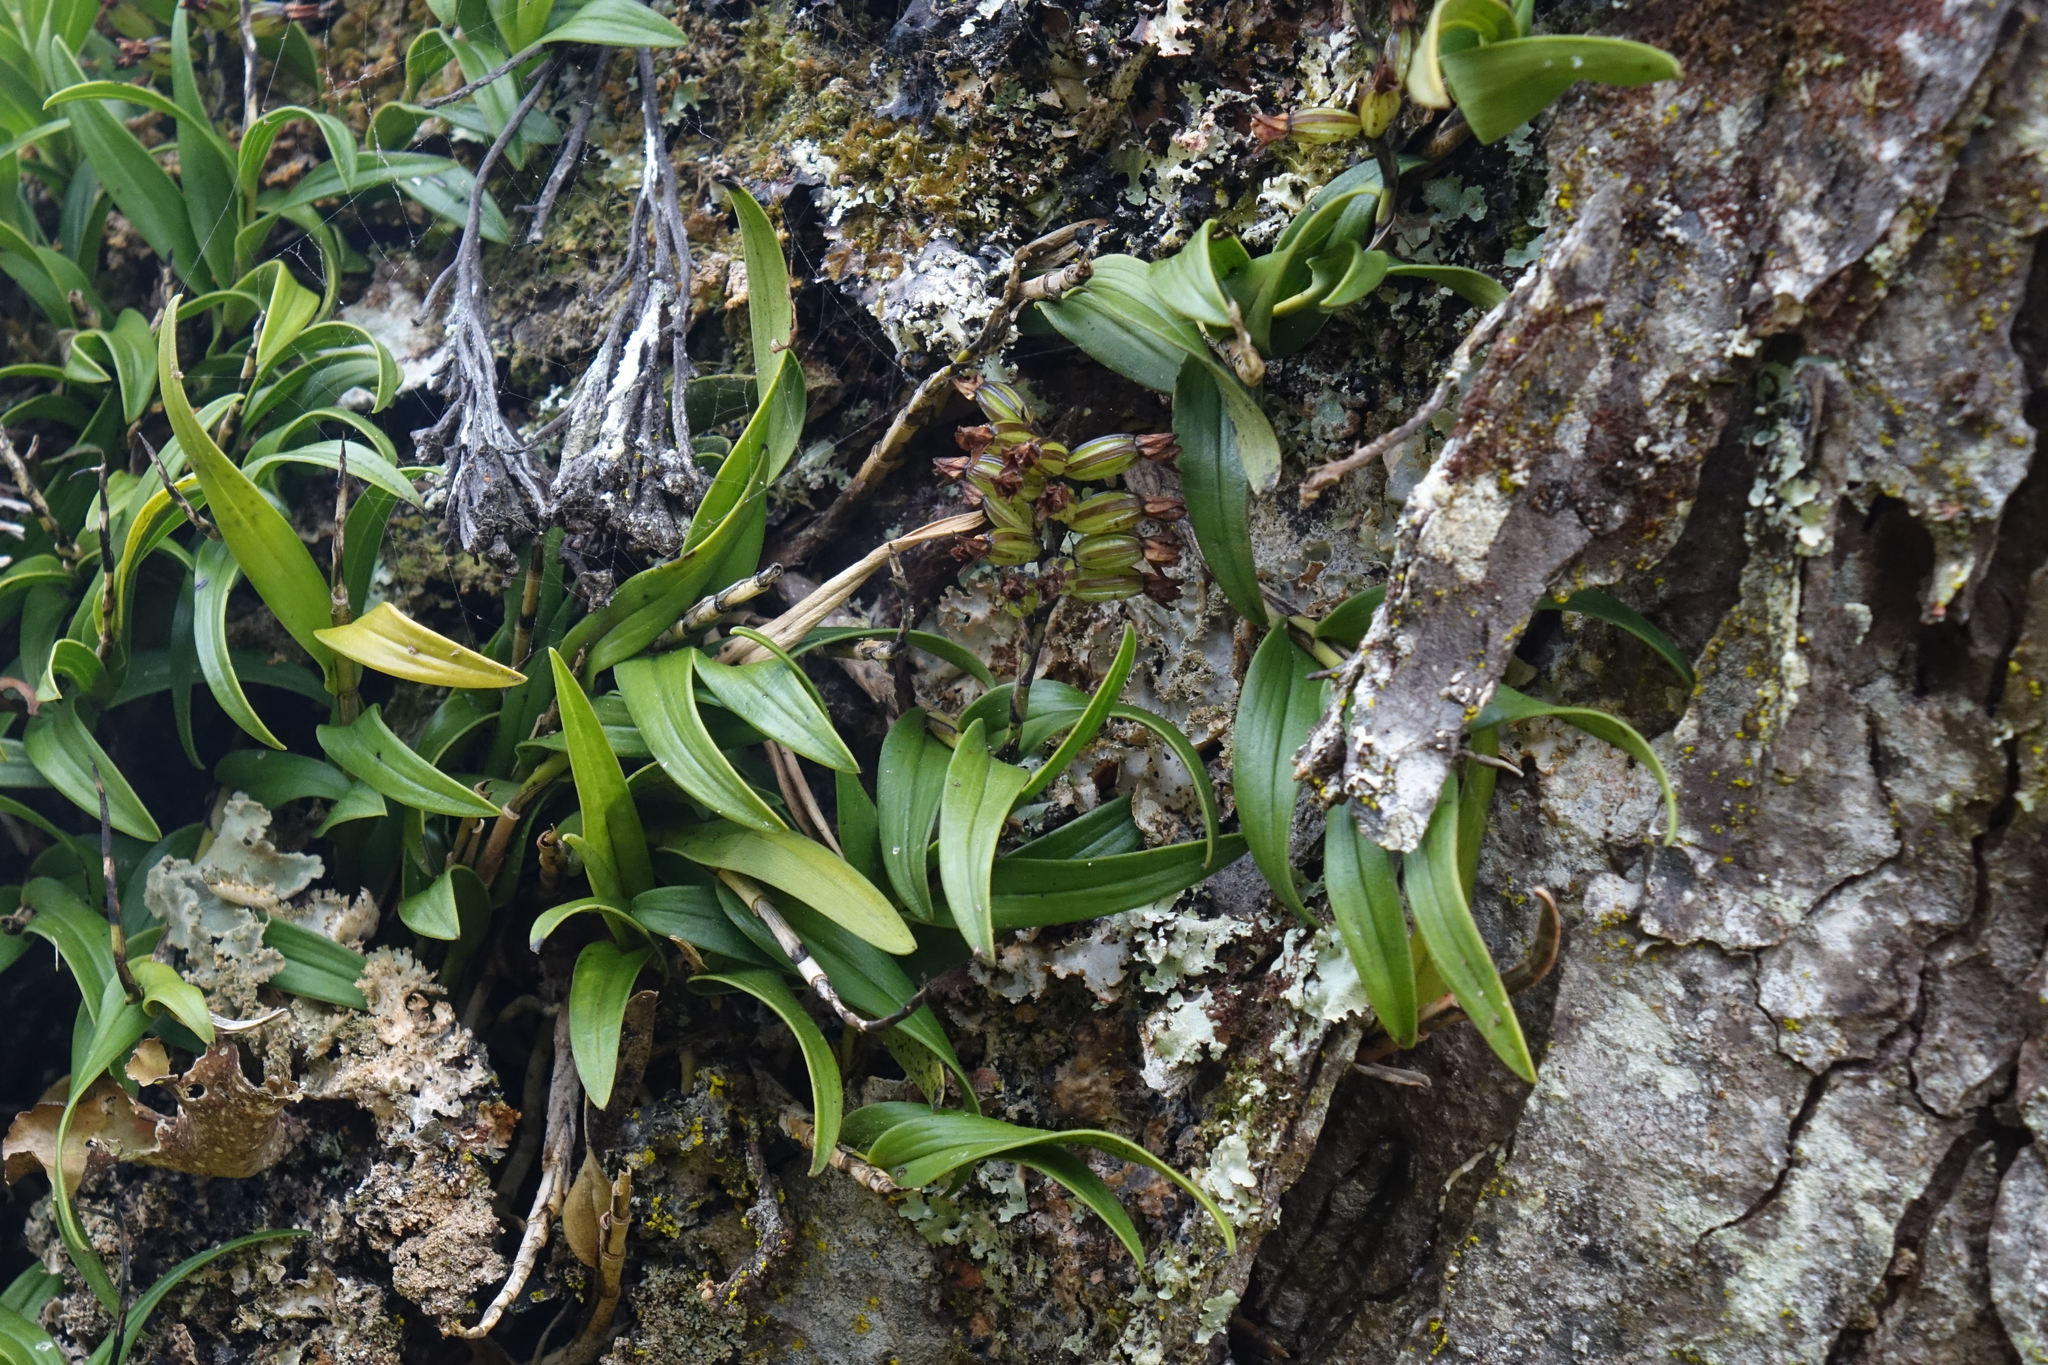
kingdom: Plantae
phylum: Tracheophyta
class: Liliopsida
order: Asparagales
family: Orchidaceae
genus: Earina
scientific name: Earina autumnalis
